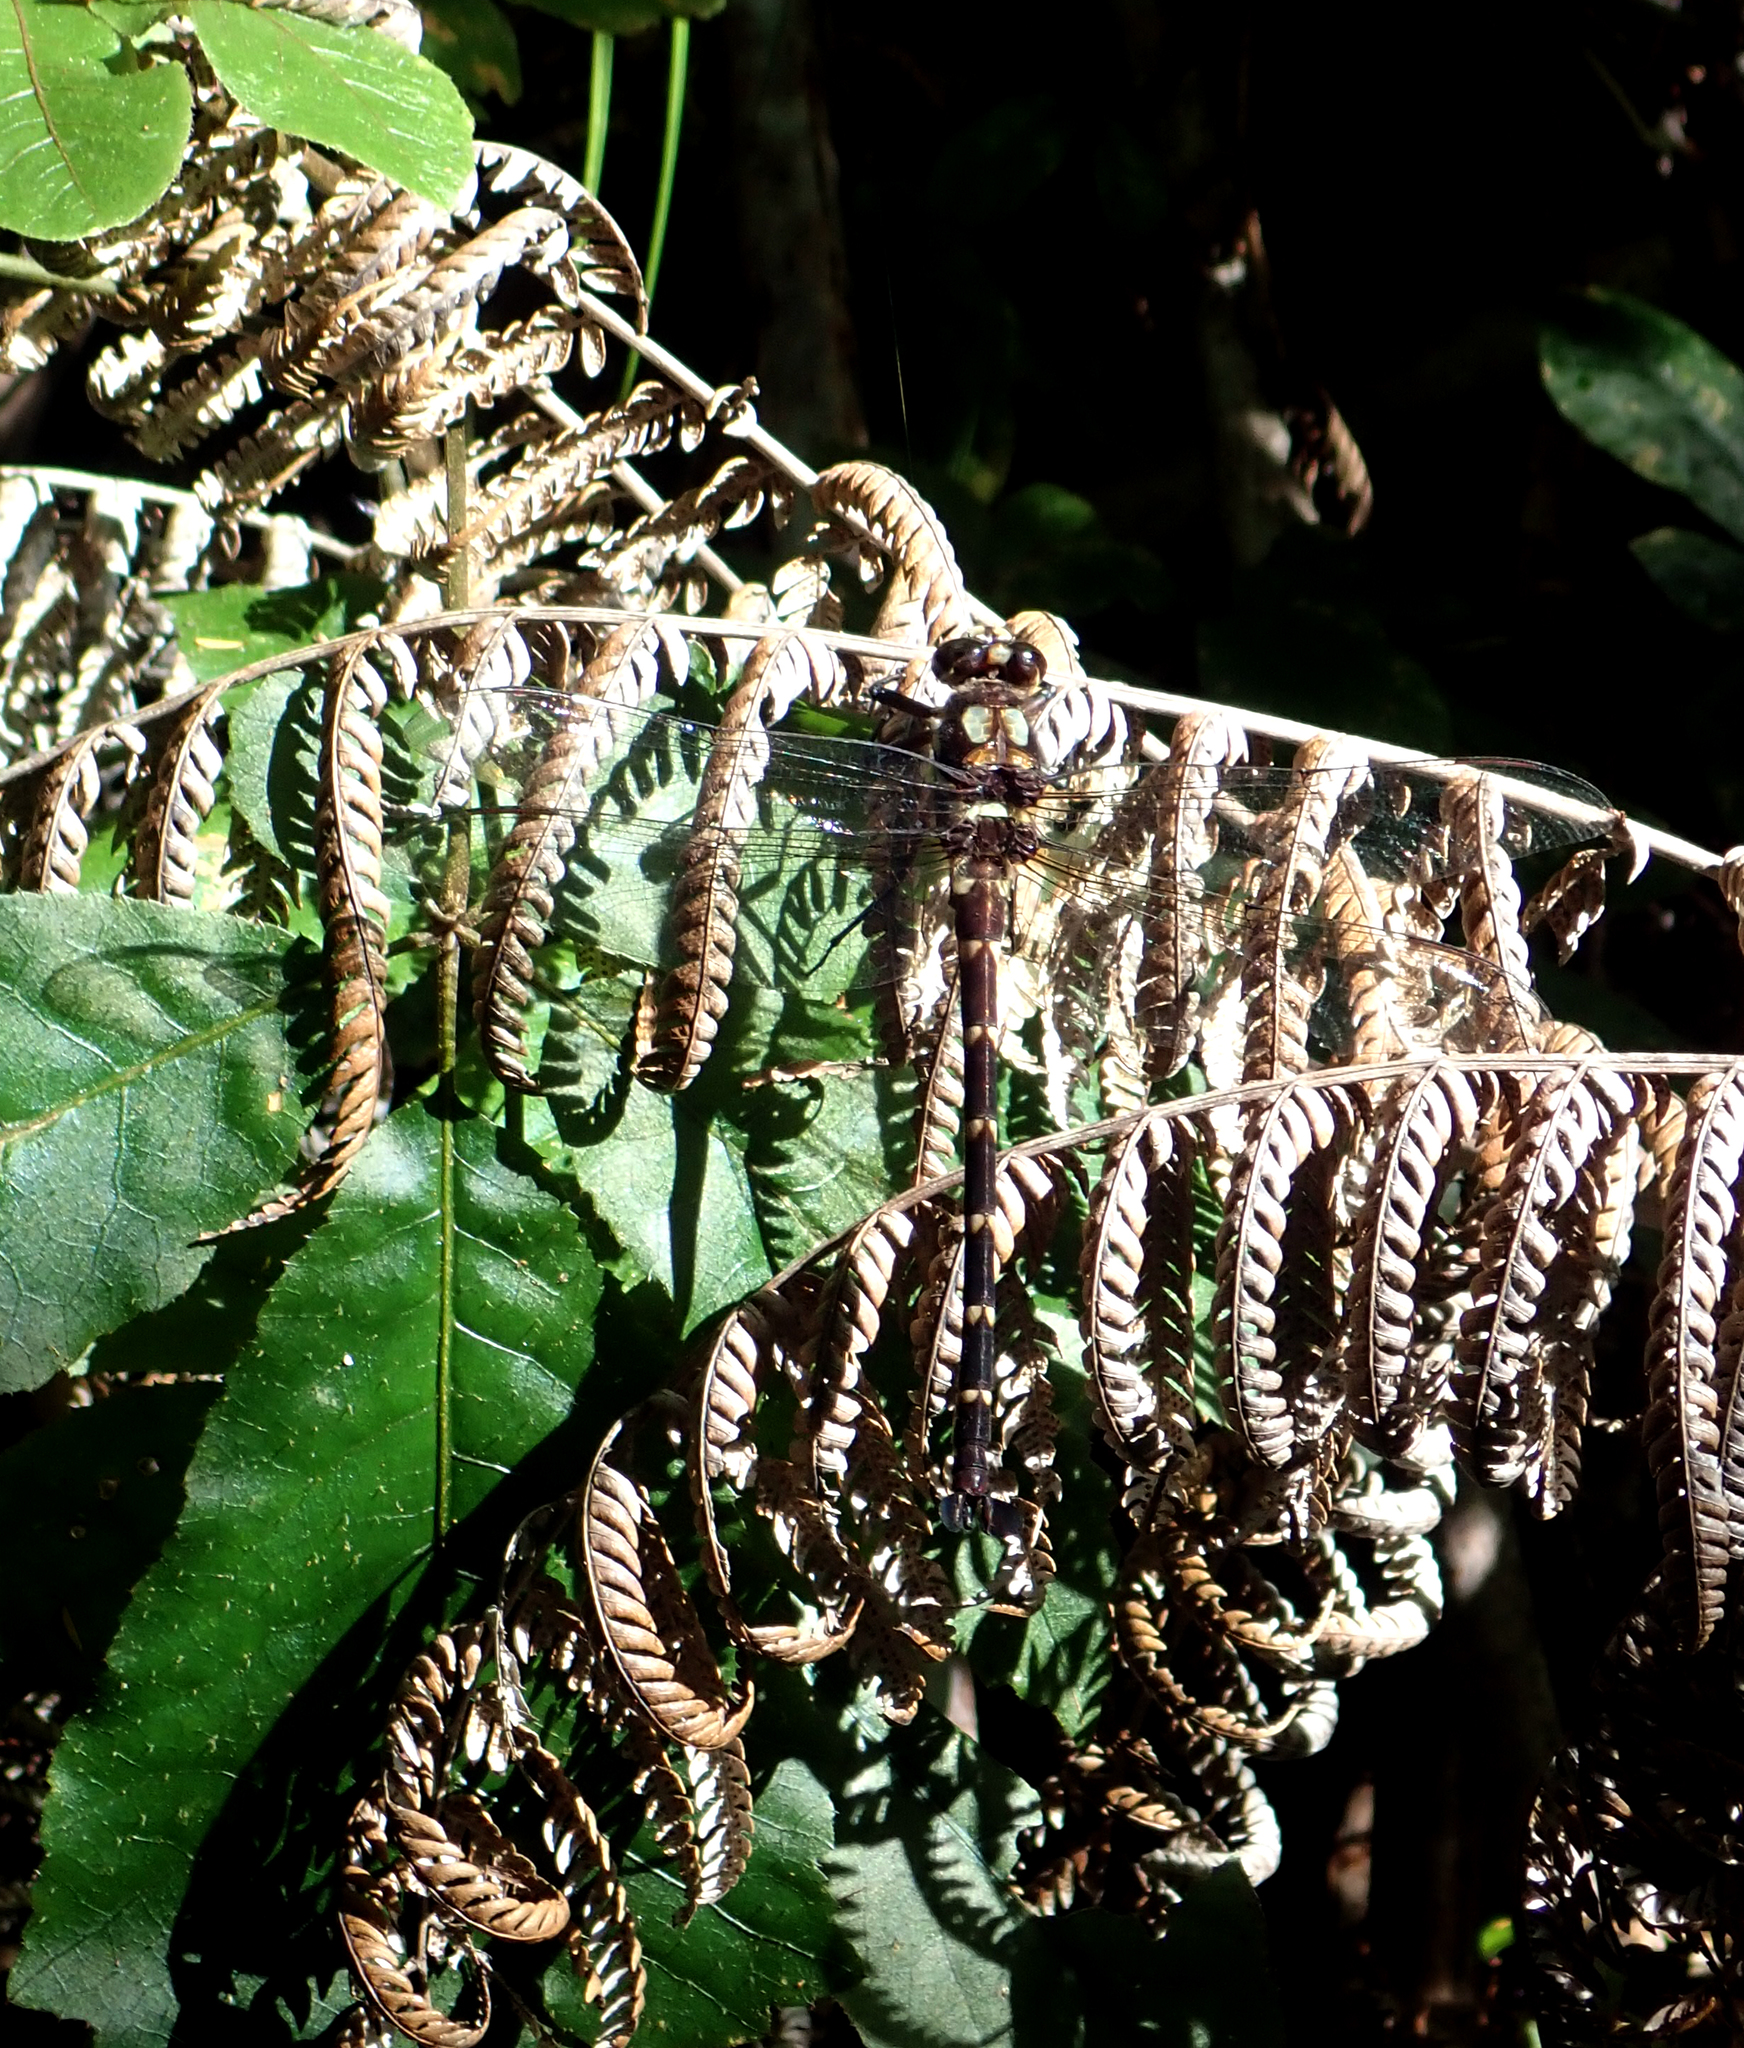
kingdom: Animalia
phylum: Arthropoda
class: Insecta
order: Odonata
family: Petaluridae
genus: Uropetala
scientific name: Uropetala carovei
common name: Bush giant dragonfly
